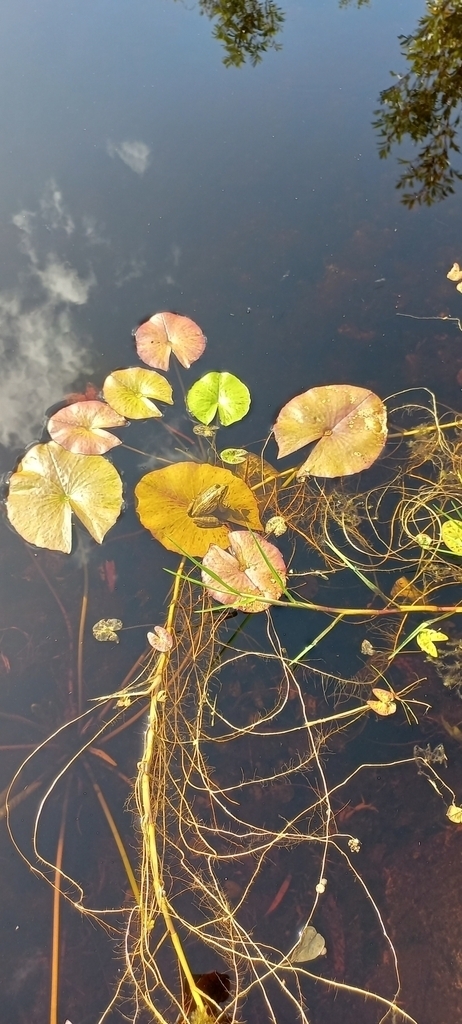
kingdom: Animalia
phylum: Chordata
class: Amphibia
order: Anura
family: Pyxicephalidae
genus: Amietia
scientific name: Amietia fuscigula
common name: Cape rana
